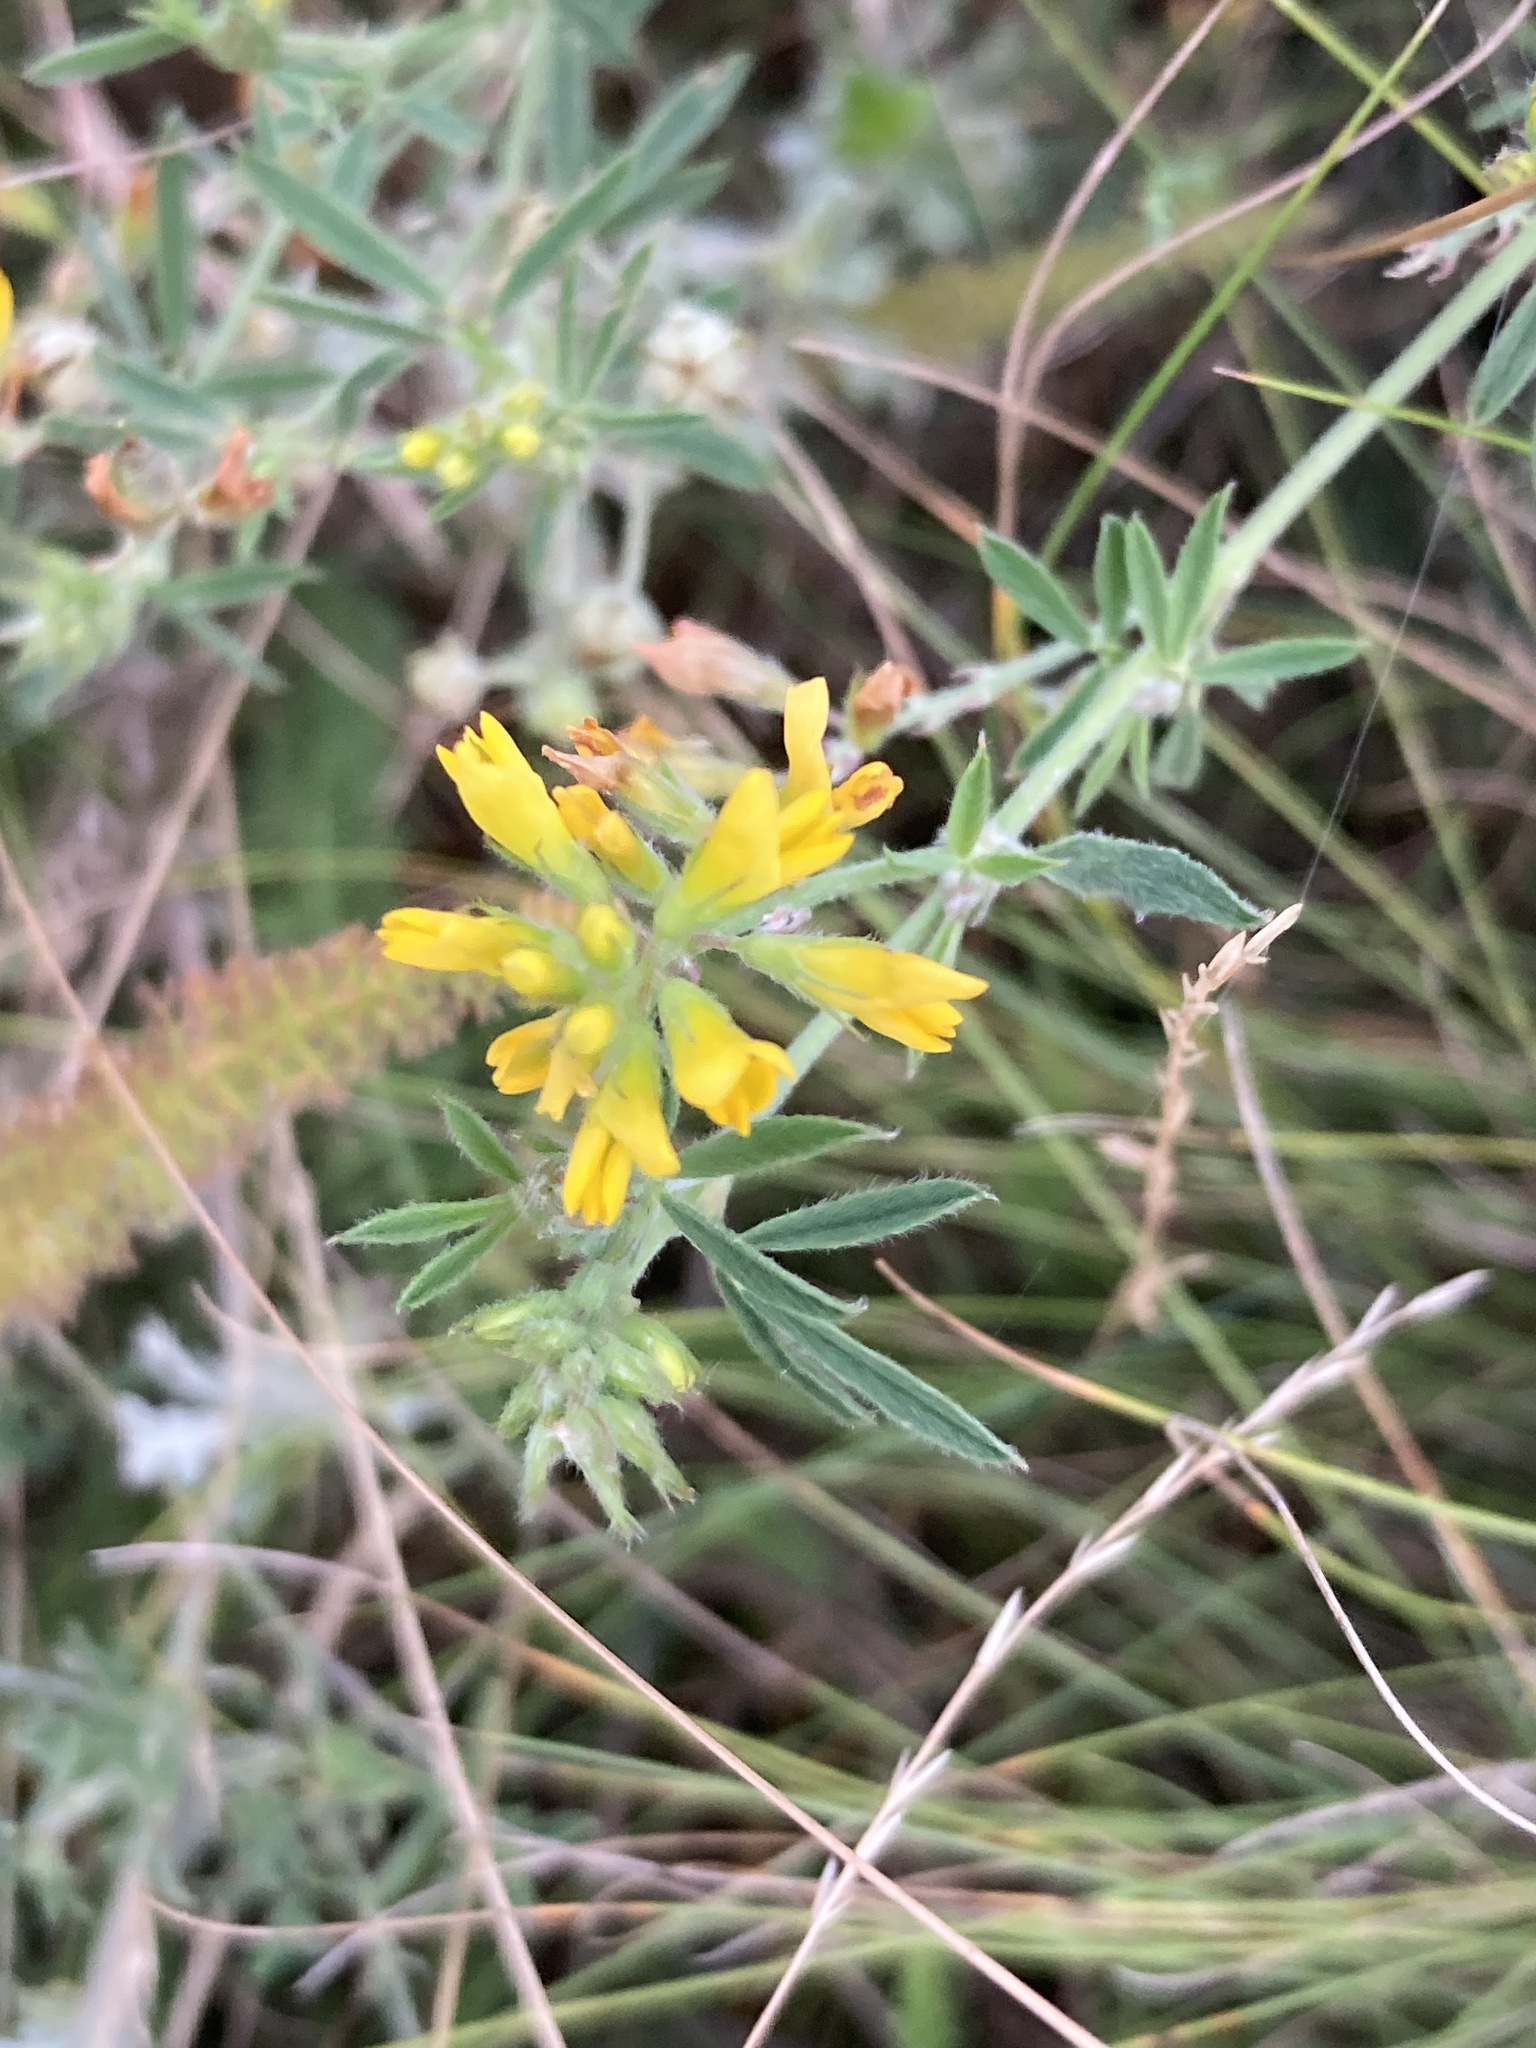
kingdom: Plantae
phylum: Tracheophyta
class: Magnoliopsida
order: Fabales
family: Fabaceae
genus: Medicago
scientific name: Medicago falcata
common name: Sickle medick
